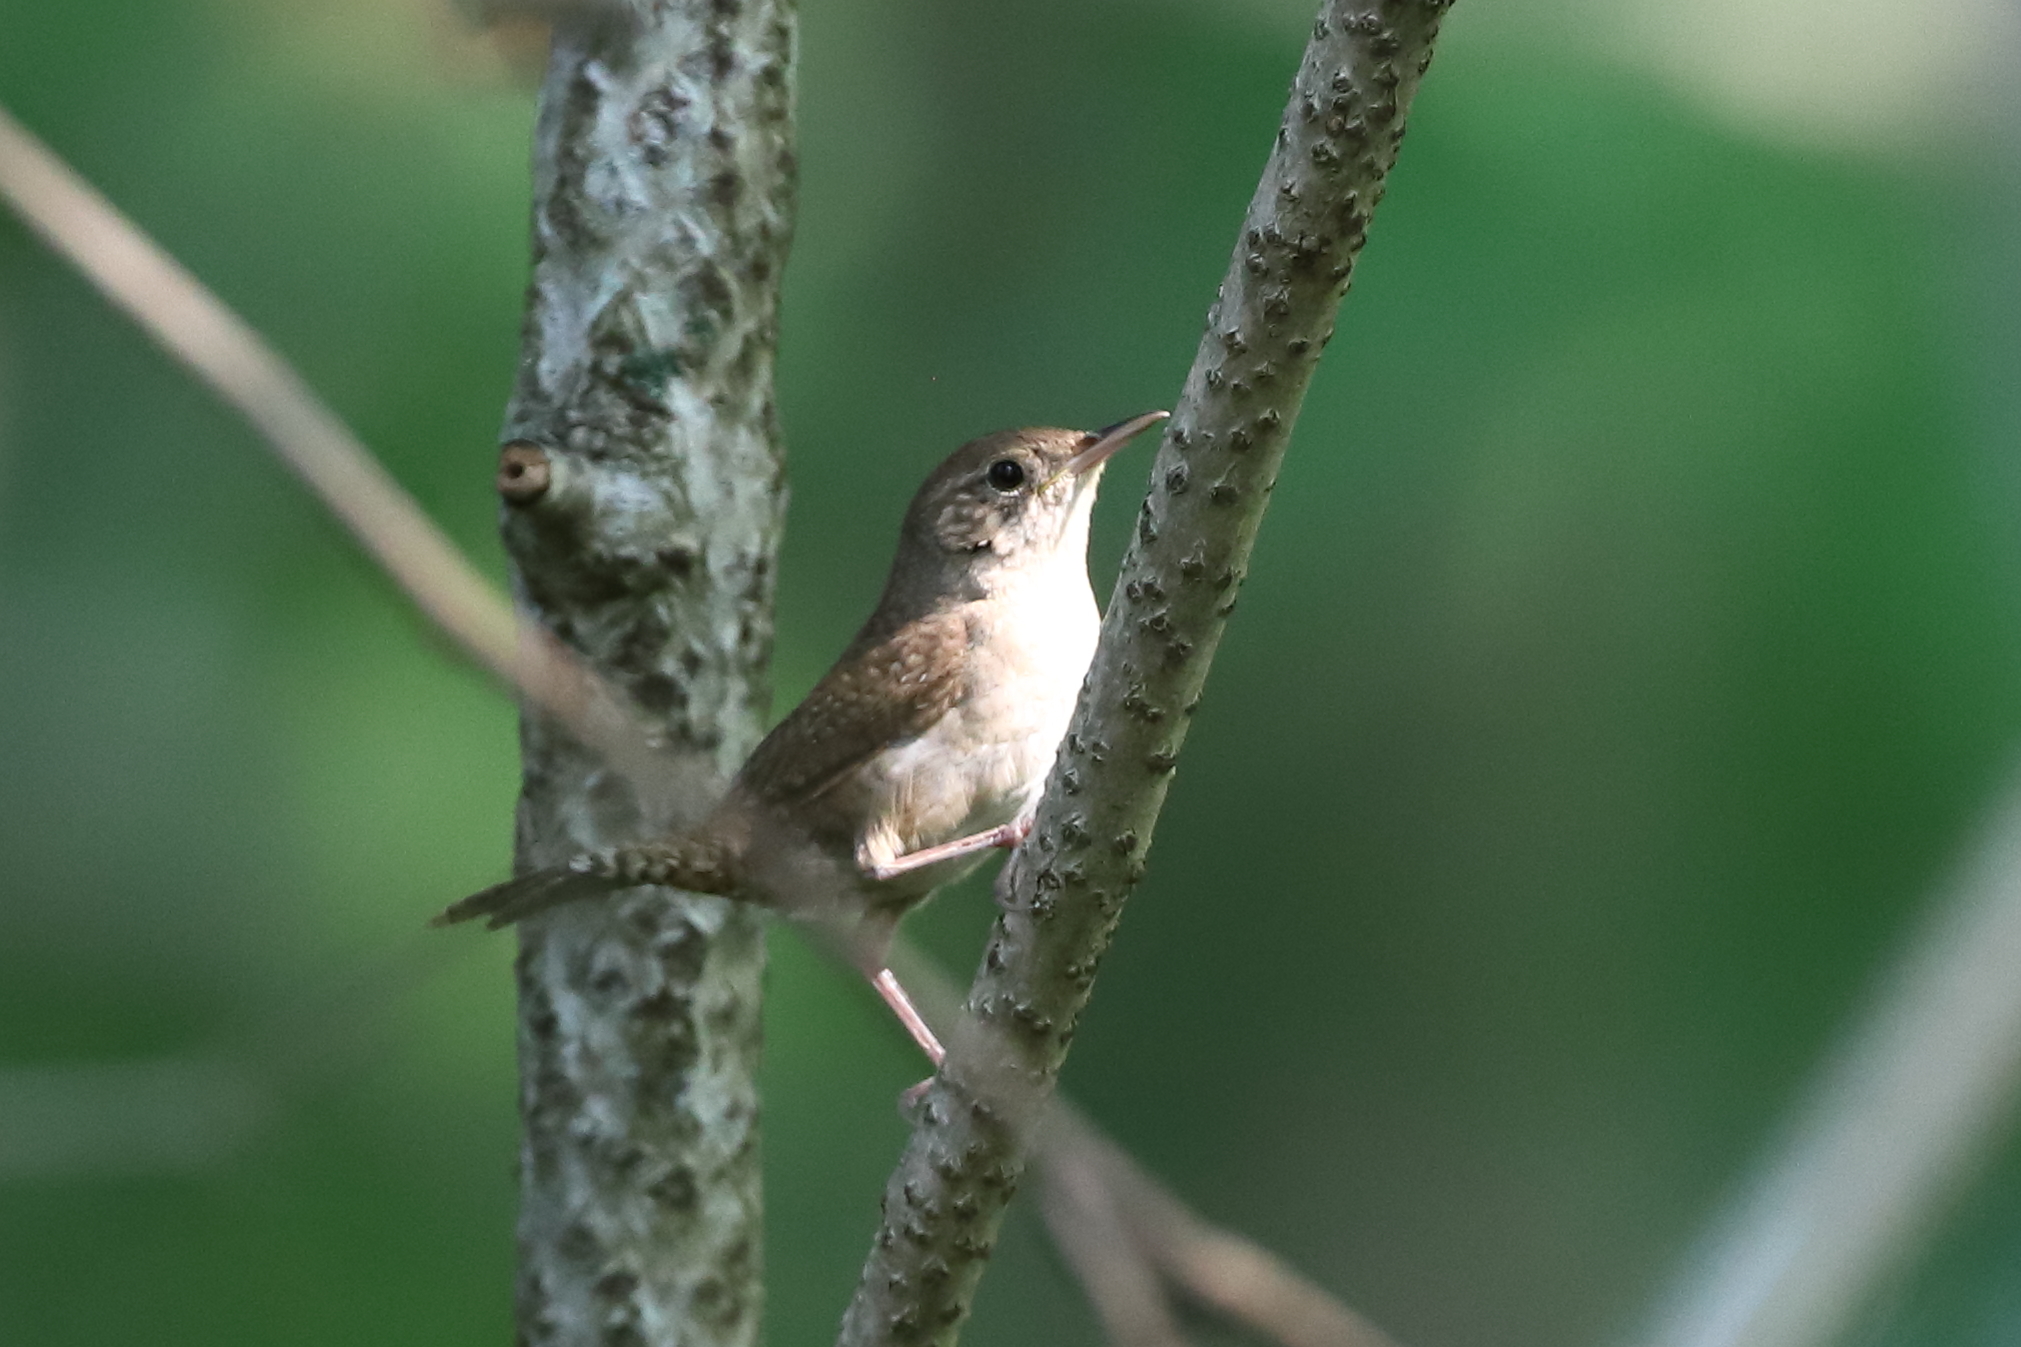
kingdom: Animalia
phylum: Chordata
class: Aves
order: Passeriformes
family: Troglodytidae
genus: Troglodytes
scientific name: Troglodytes aedon
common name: House wren
